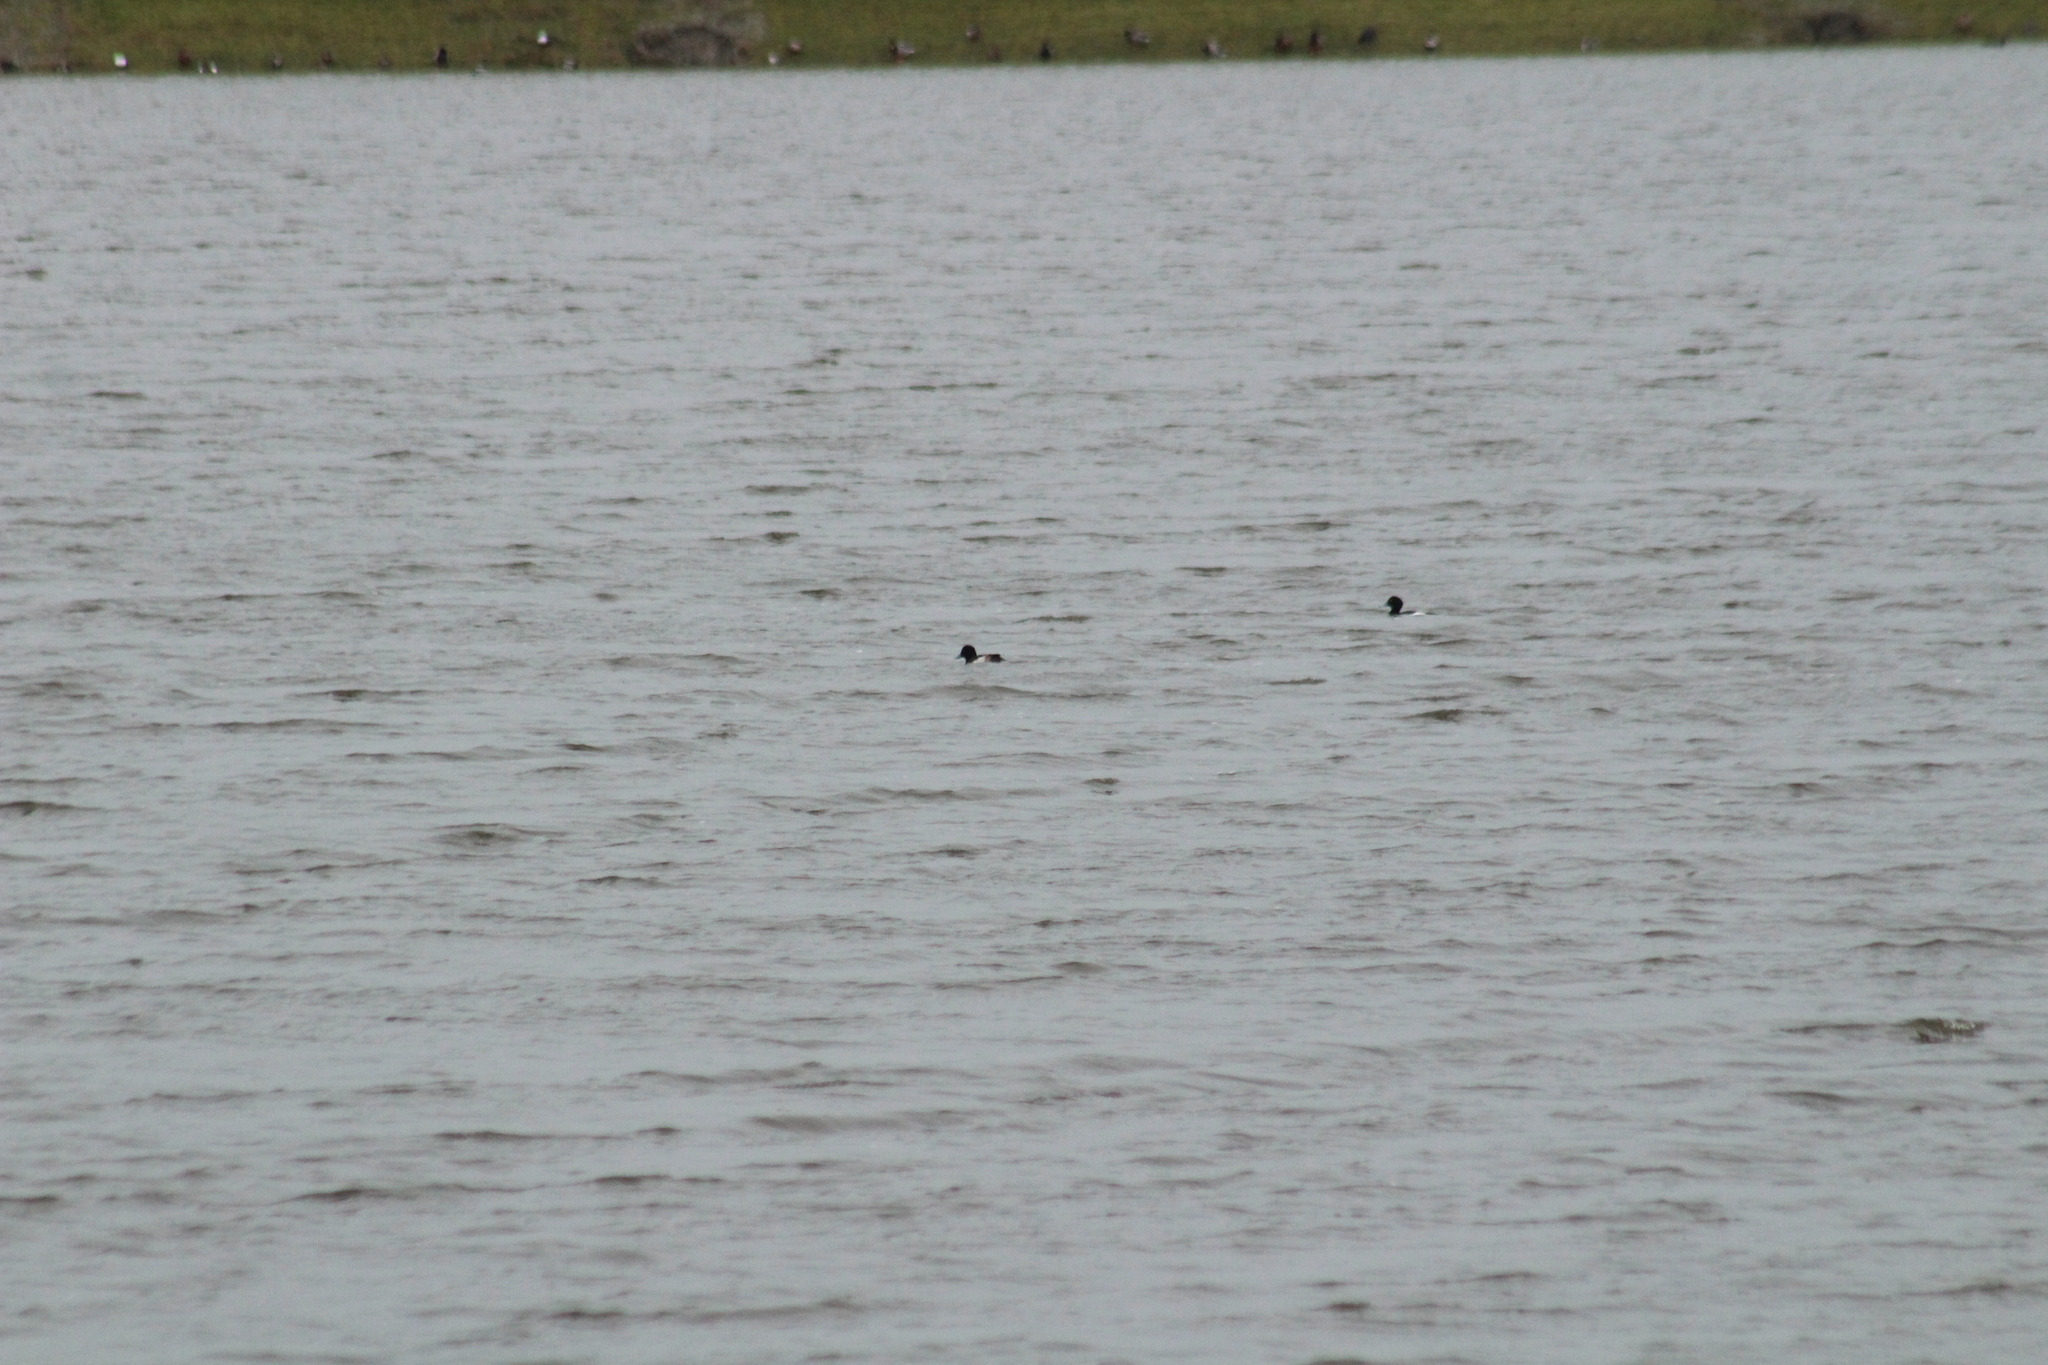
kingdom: Animalia
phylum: Chordata
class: Aves
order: Anseriformes
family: Anatidae
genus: Aythya
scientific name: Aythya fuligula
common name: Tufted duck
